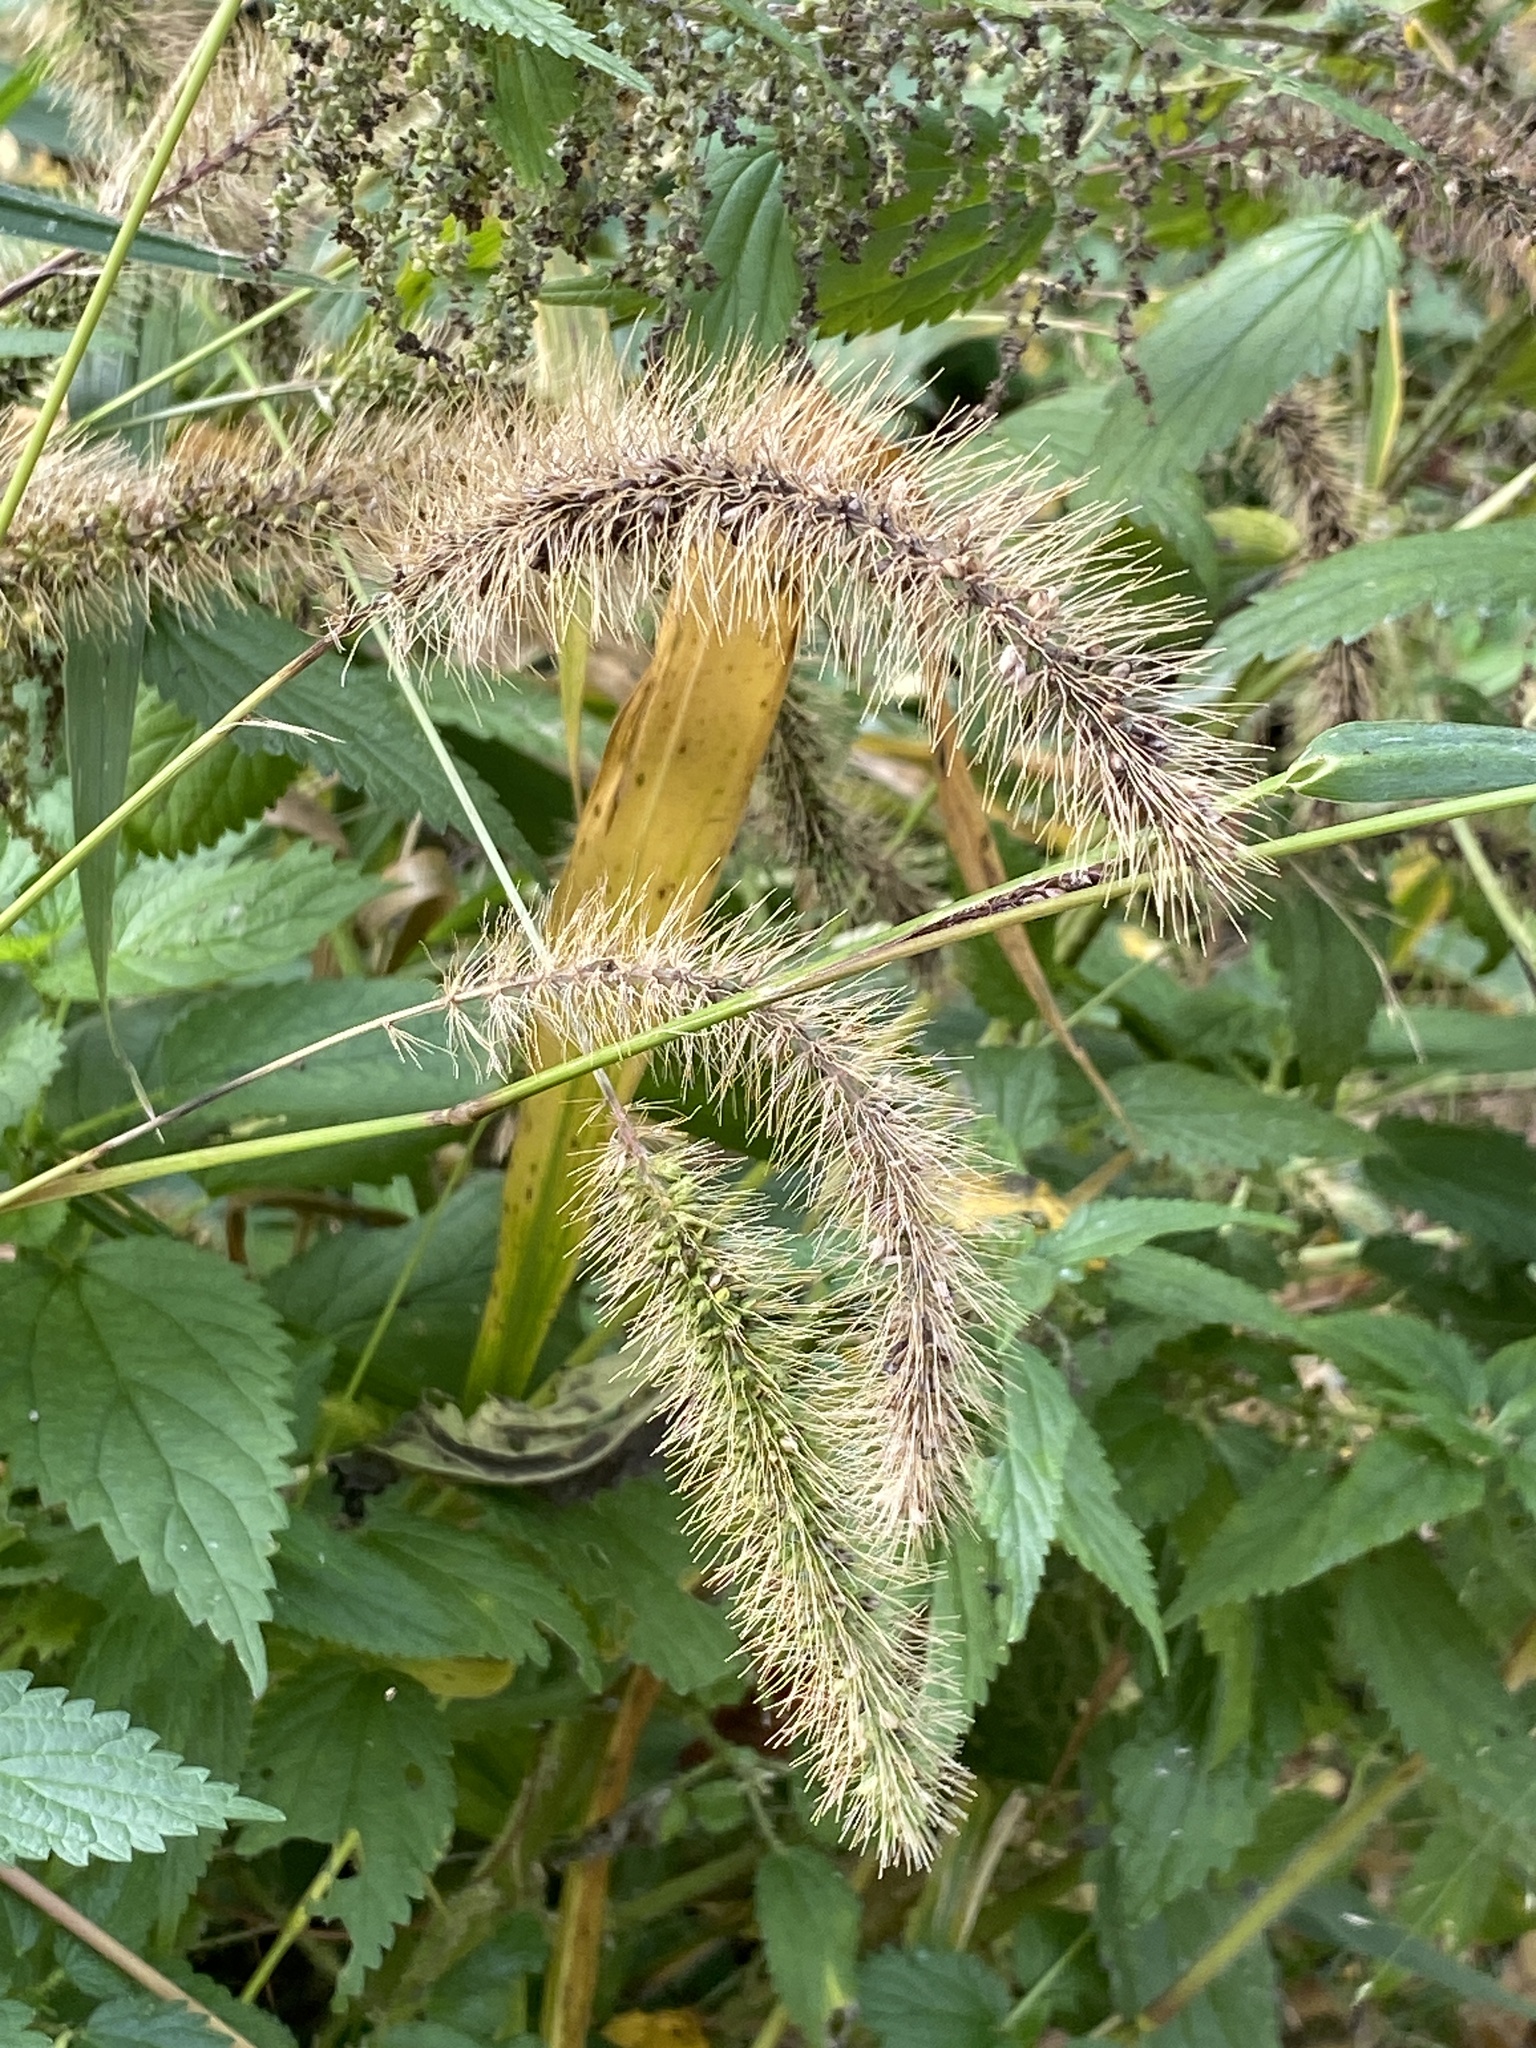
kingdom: Plantae
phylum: Tracheophyta
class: Liliopsida
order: Poales
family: Poaceae
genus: Setaria
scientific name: Setaria faberi
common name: Nodding bristle-grass
